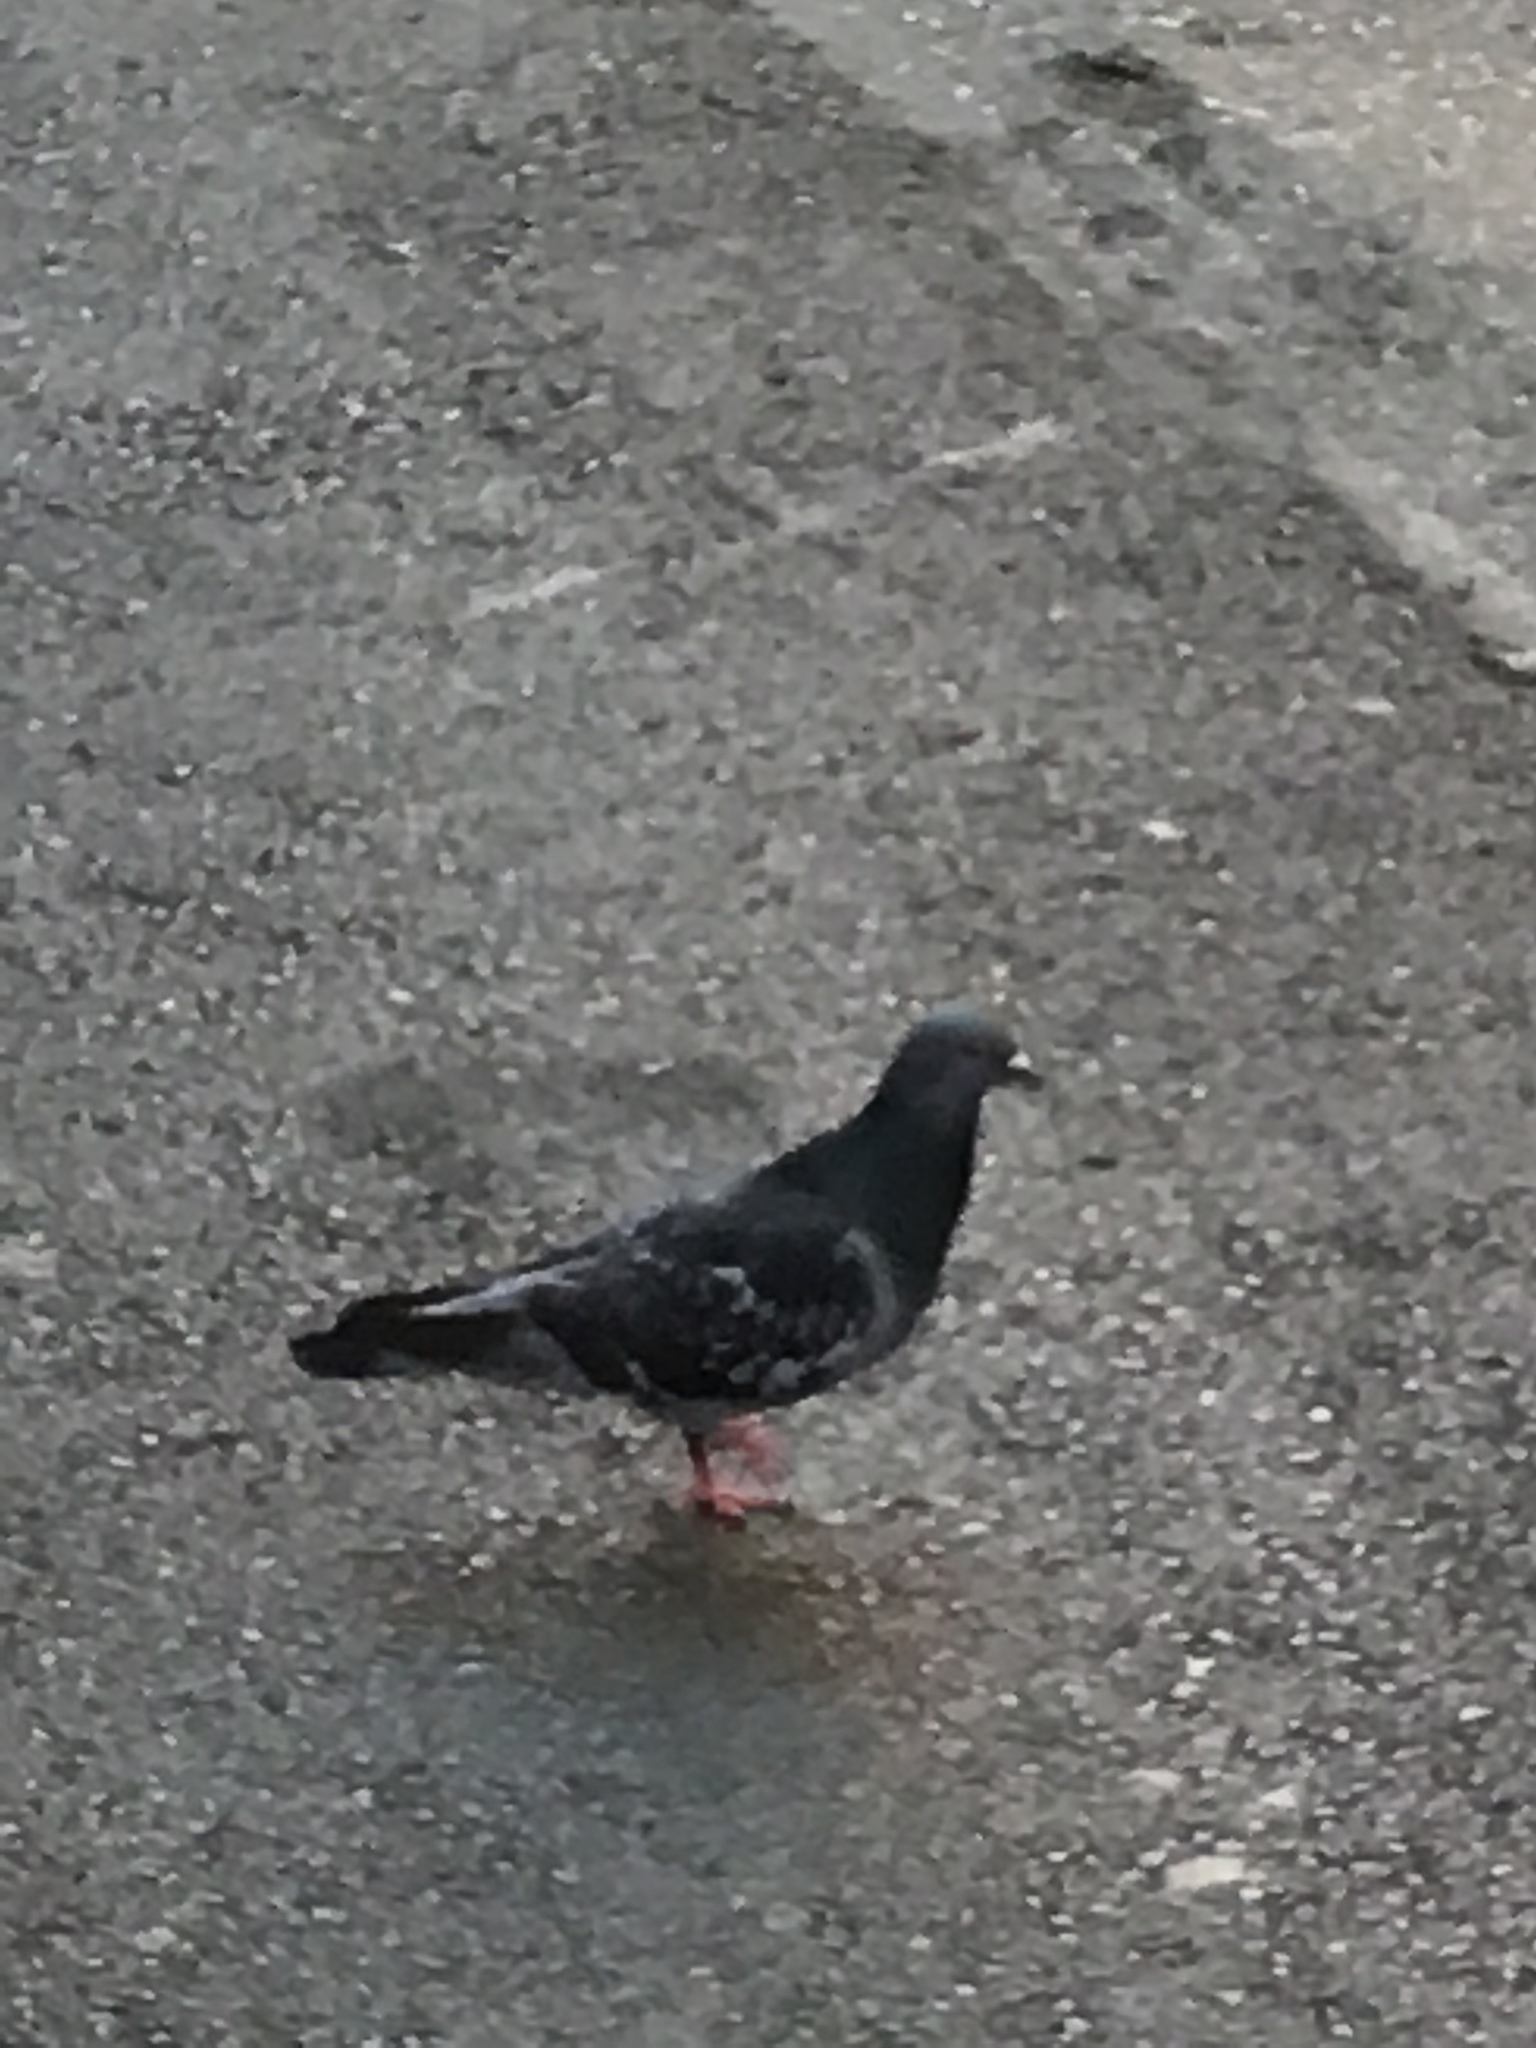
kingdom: Animalia
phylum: Chordata
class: Aves
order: Columbiformes
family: Columbidae
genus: Columba
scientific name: Columba livia
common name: Rock pigeon
